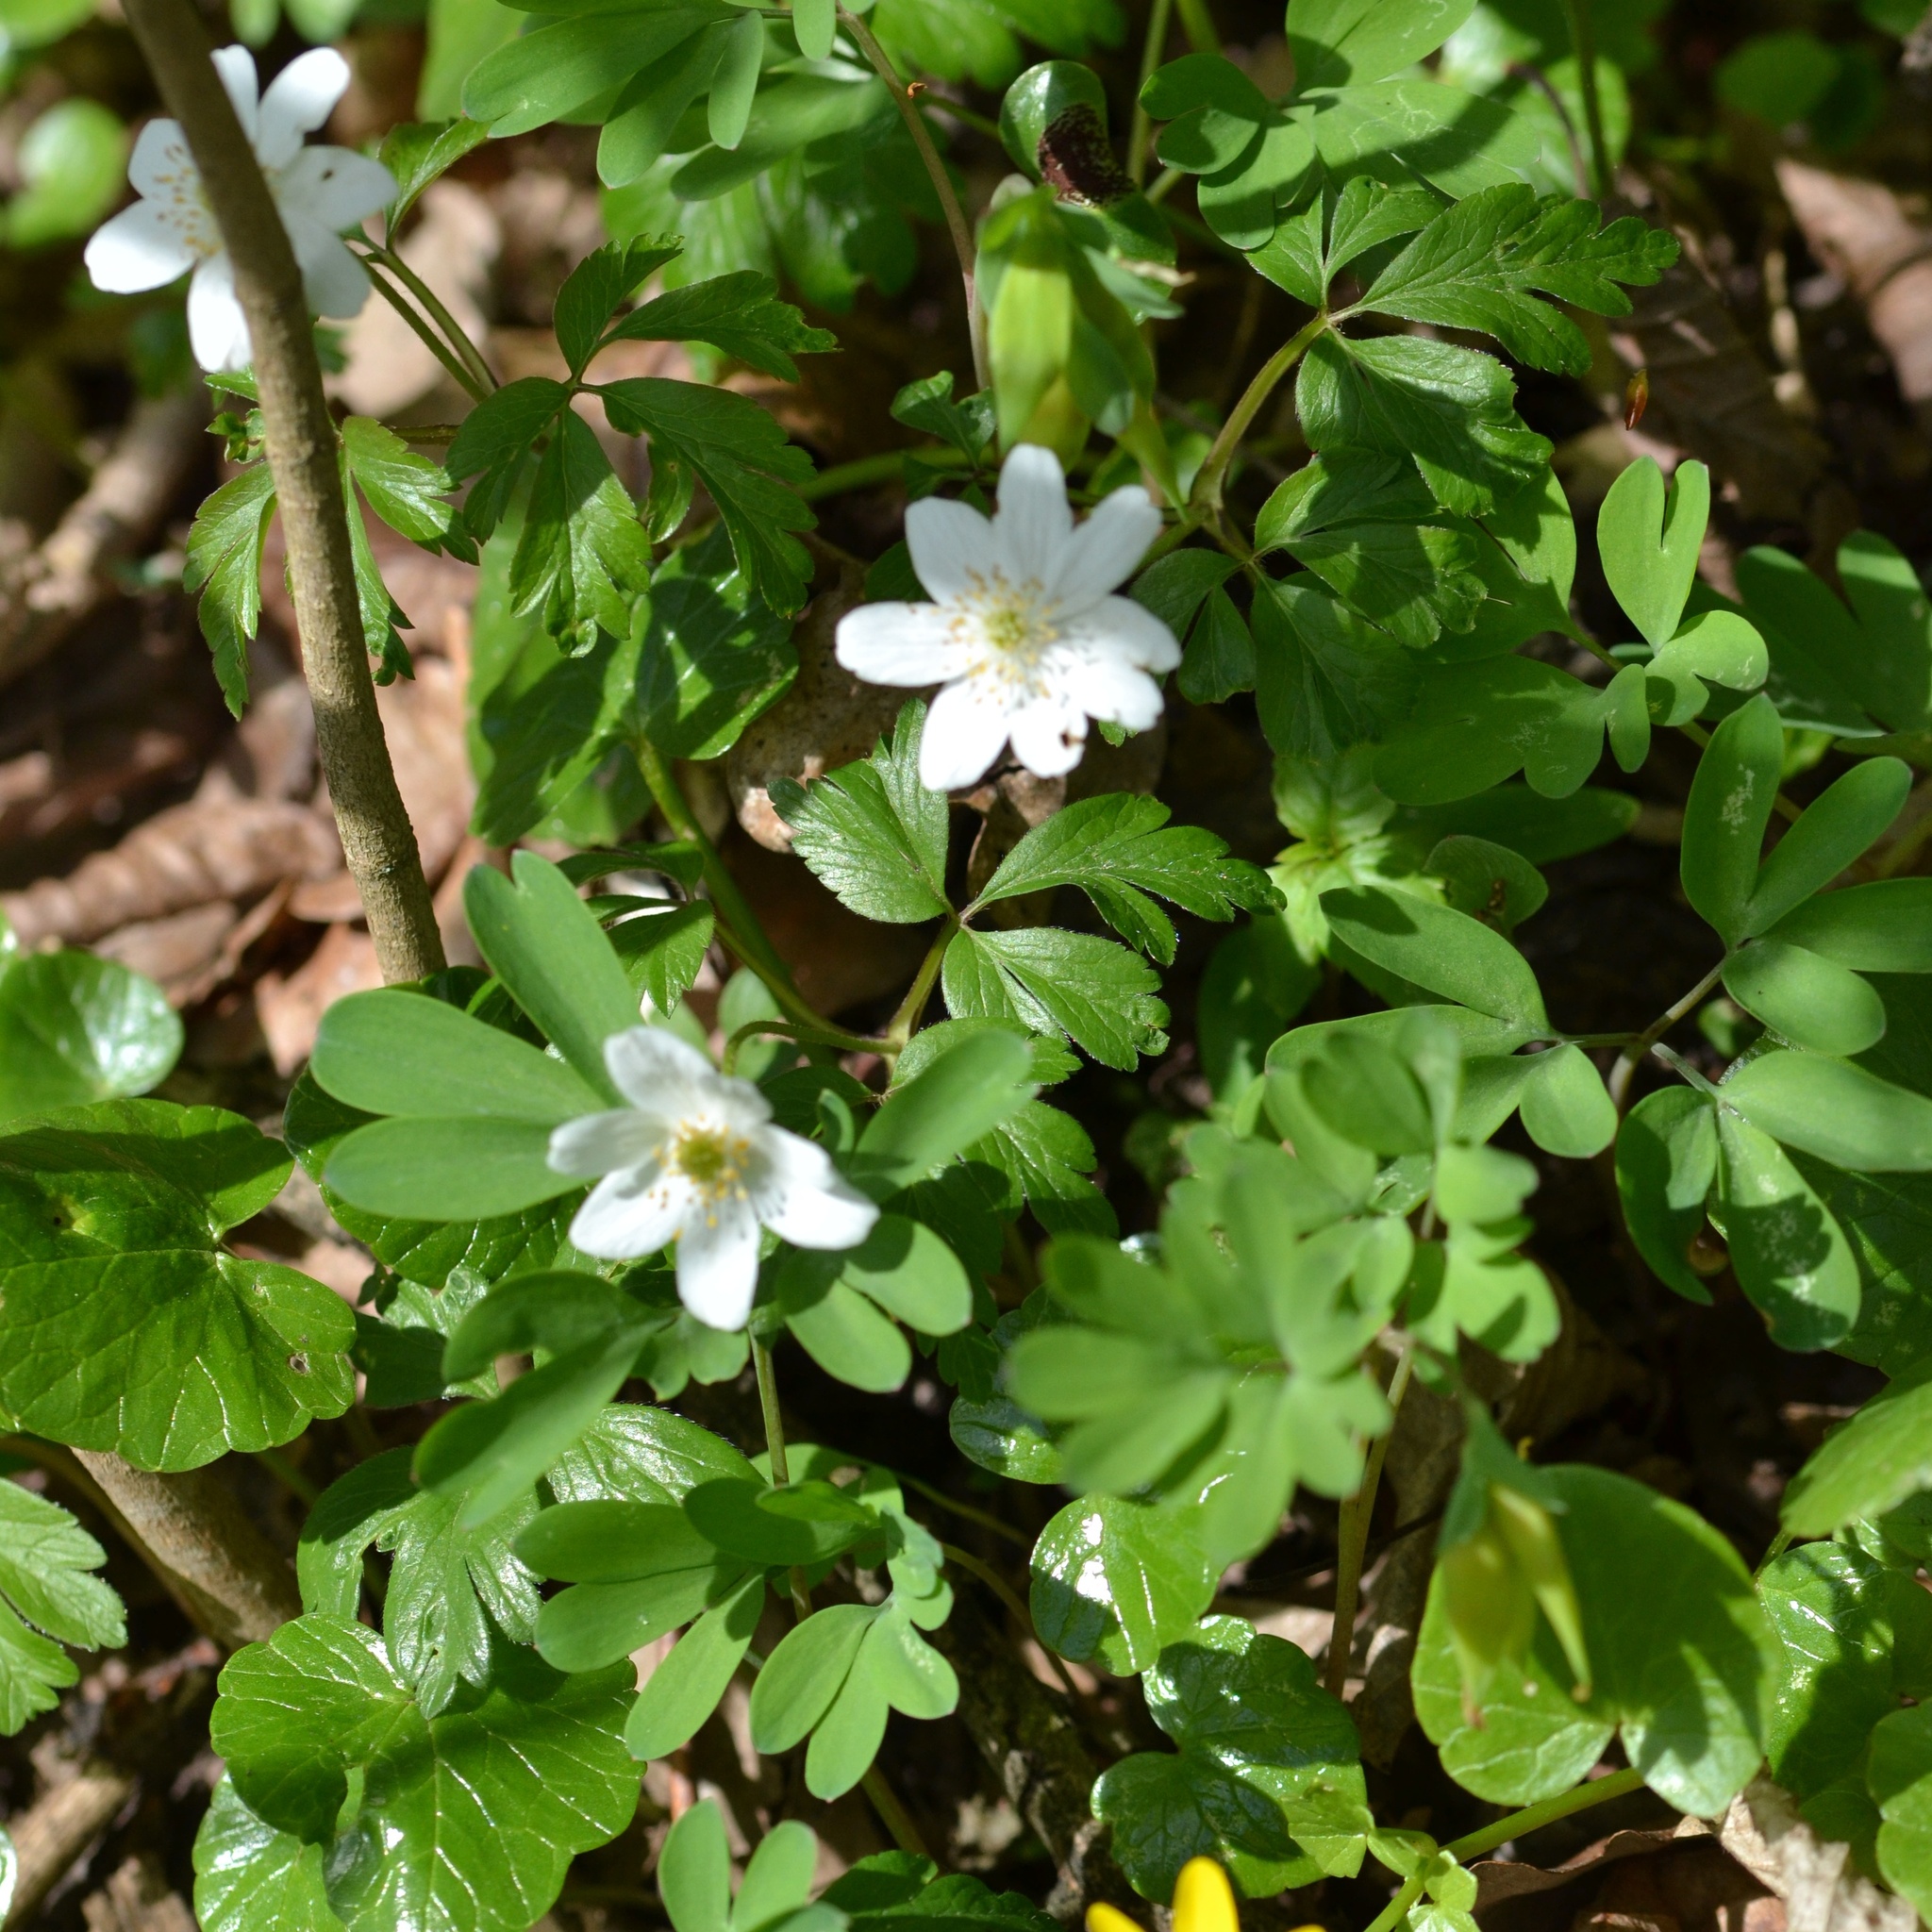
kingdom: Plantae
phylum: Tracheophyta
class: Magnoliopsida
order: Ranunculales
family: Ranunculaceae
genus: Anemone
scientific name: Anemone nemorosa
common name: Wood anemone
